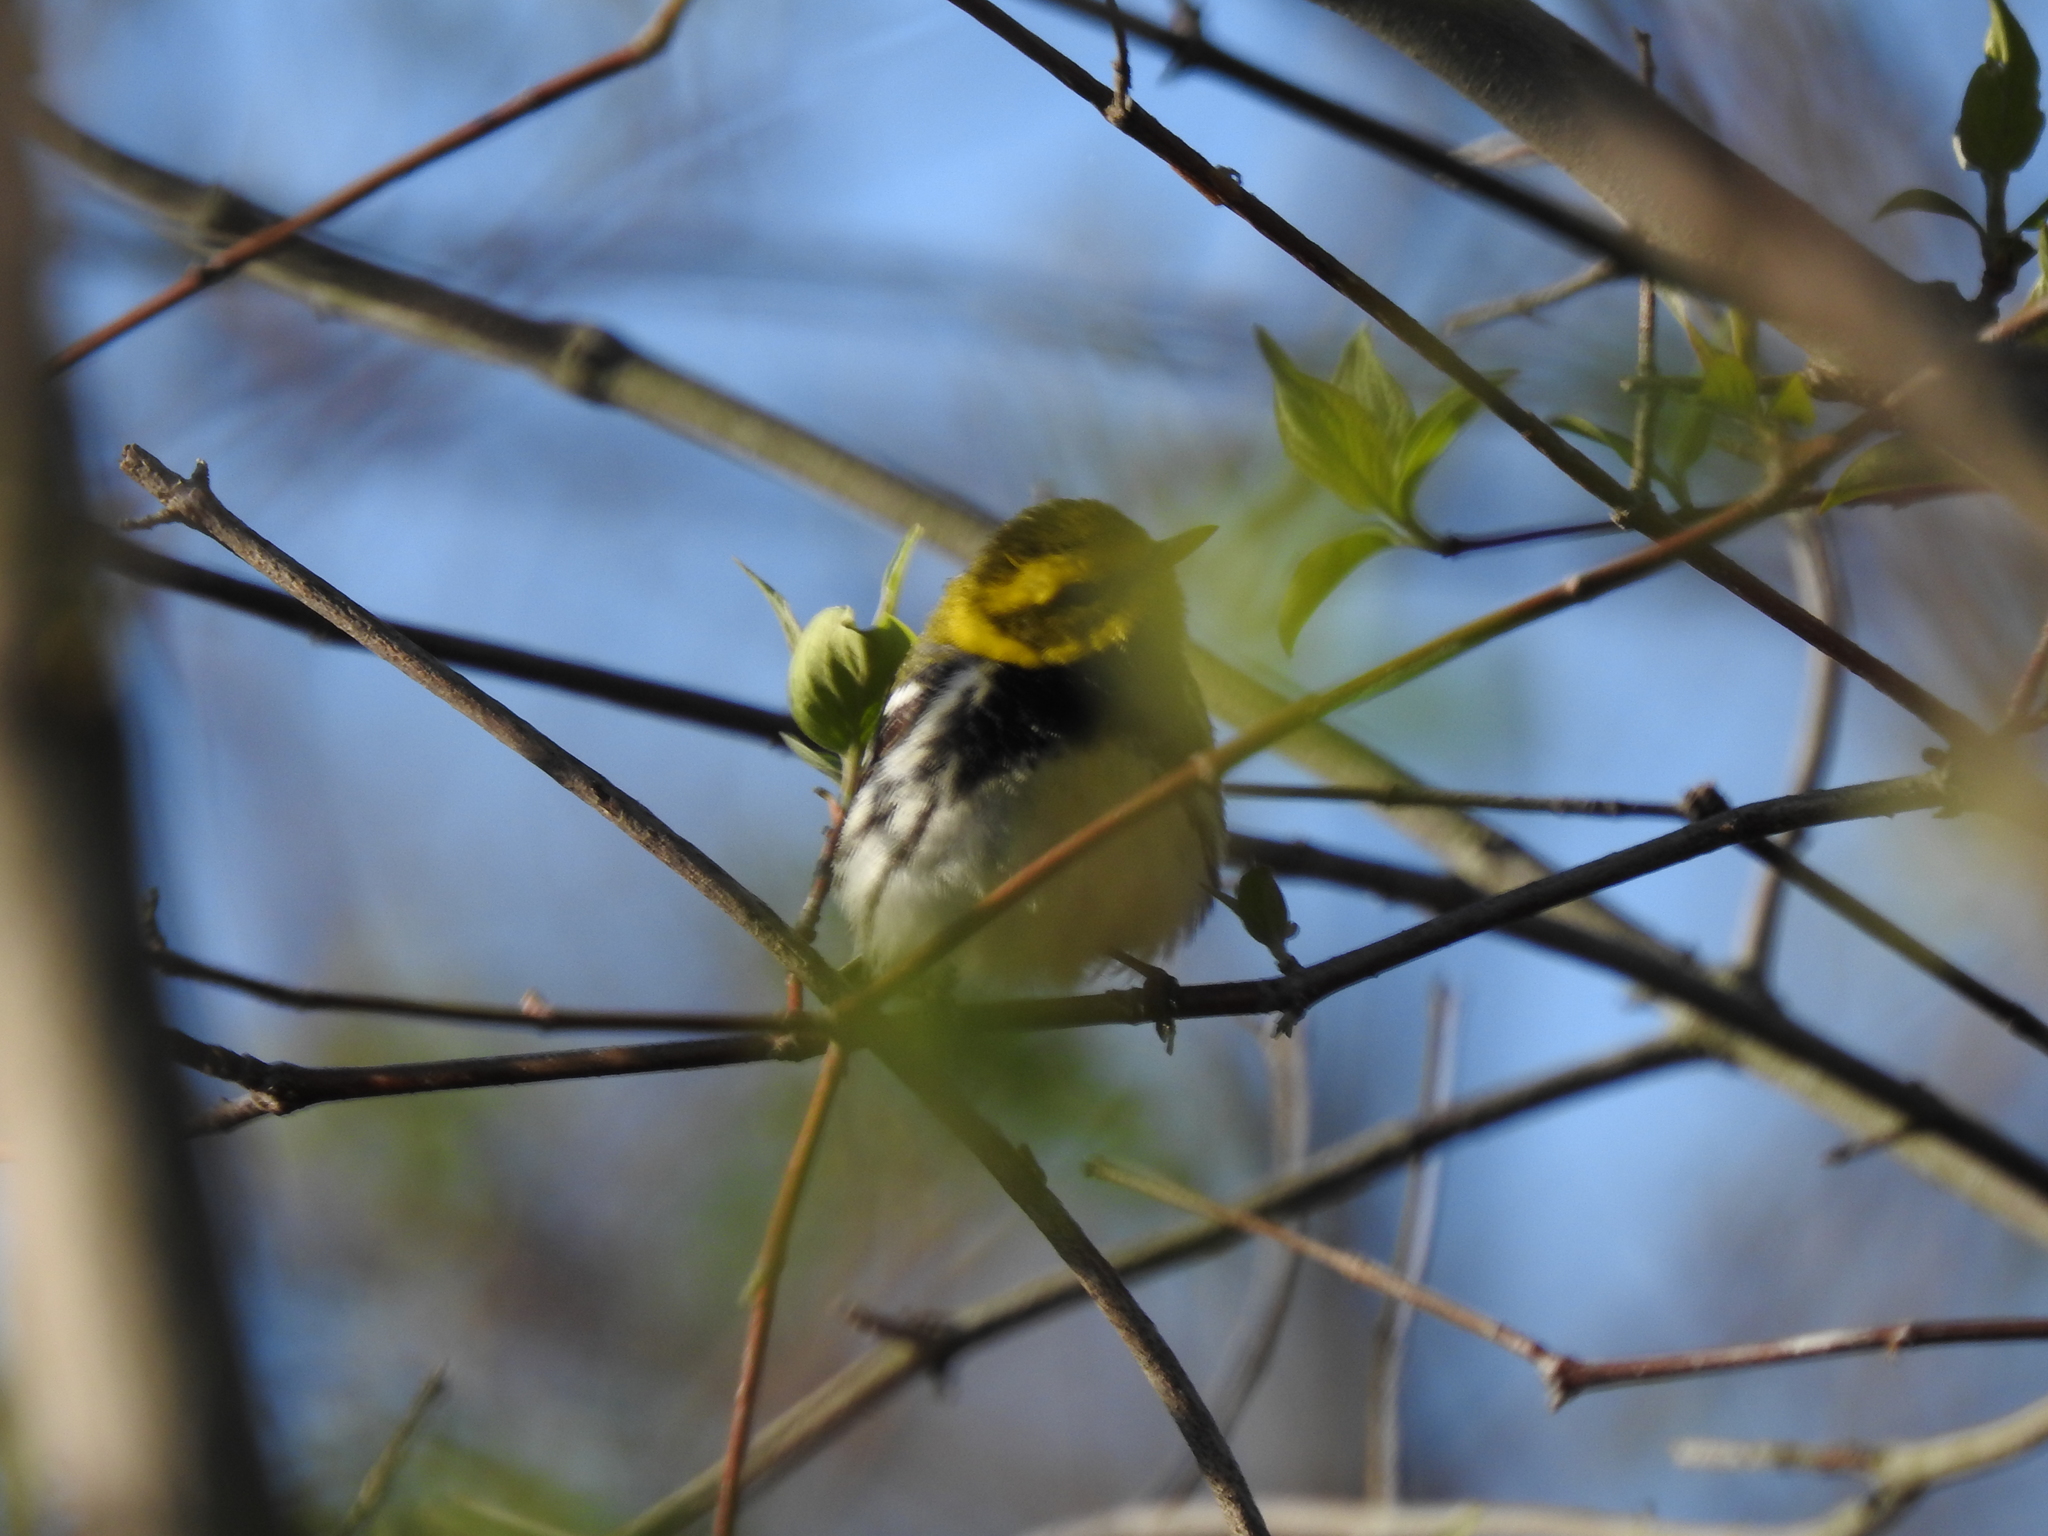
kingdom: Animalia
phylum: Chordata
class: Aves
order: Passeriformes
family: Parulidae
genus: Setophaga
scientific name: Setophaga virens
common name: Black-throated green warbler
